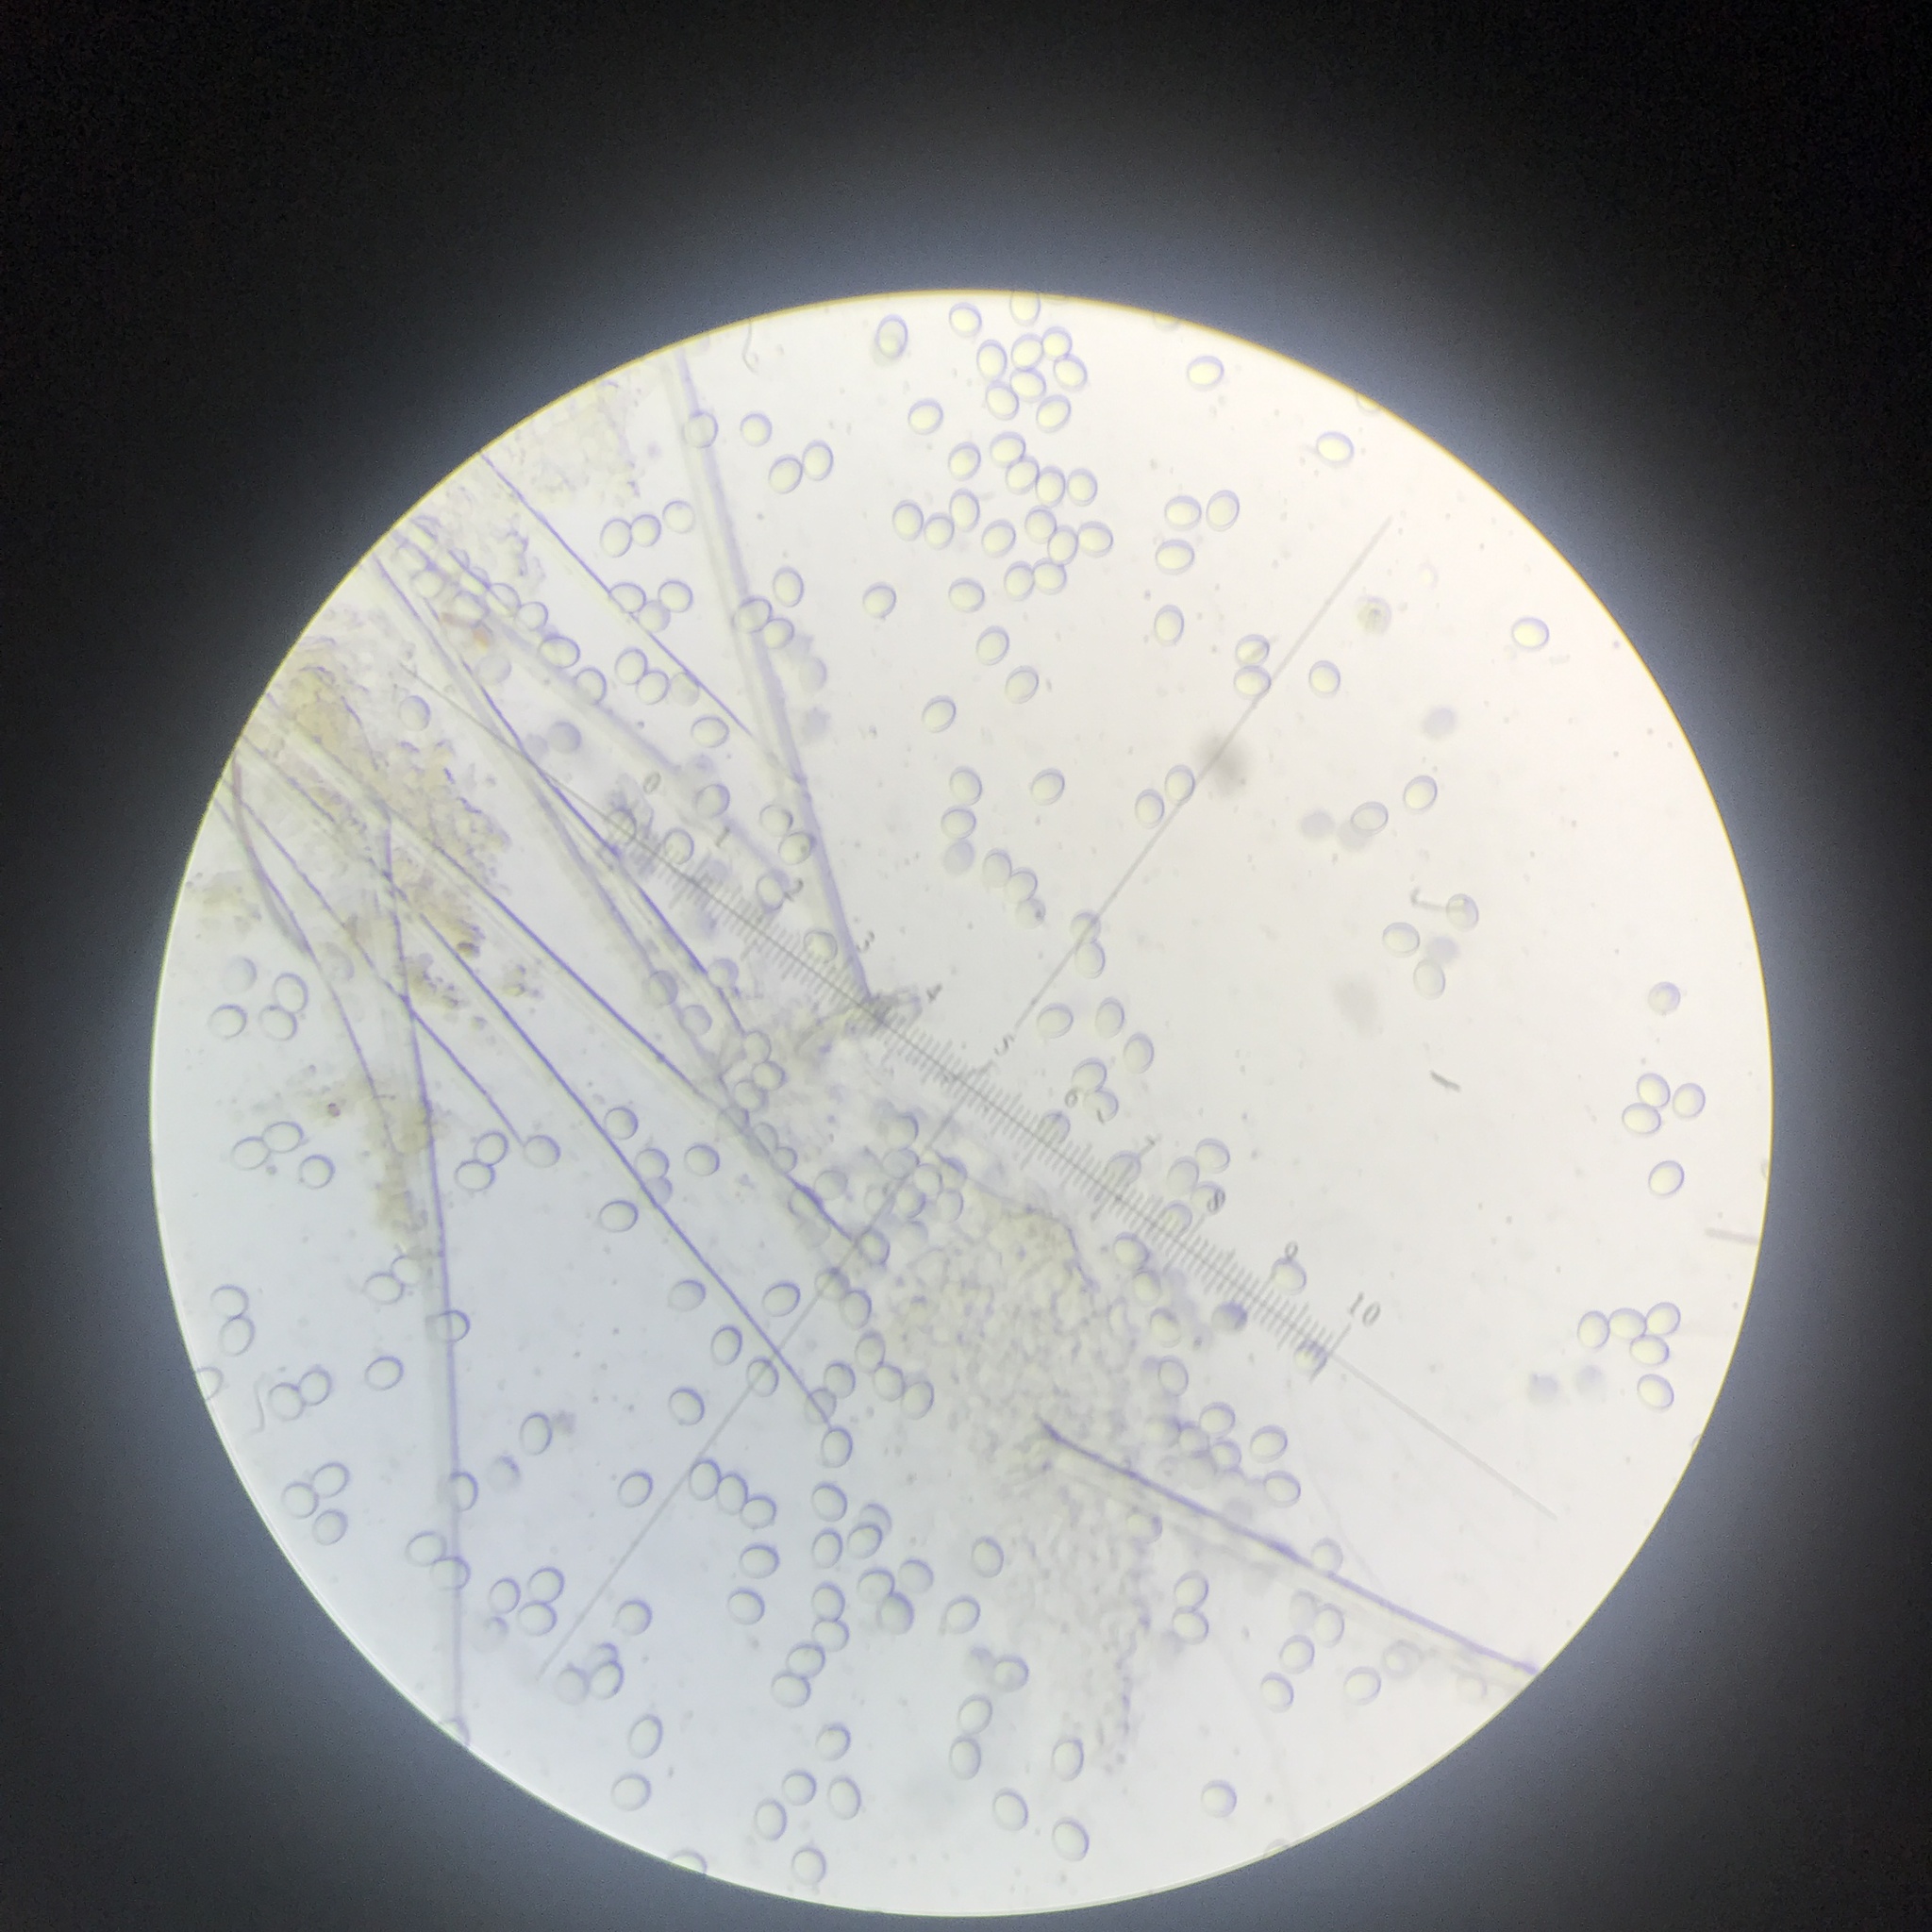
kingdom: Fungi
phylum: Ascomycota
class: Pezizomycetes
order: Pezizales
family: Ascodesmidaceae
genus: Trichobolus
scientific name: Trichobolus zukalii
